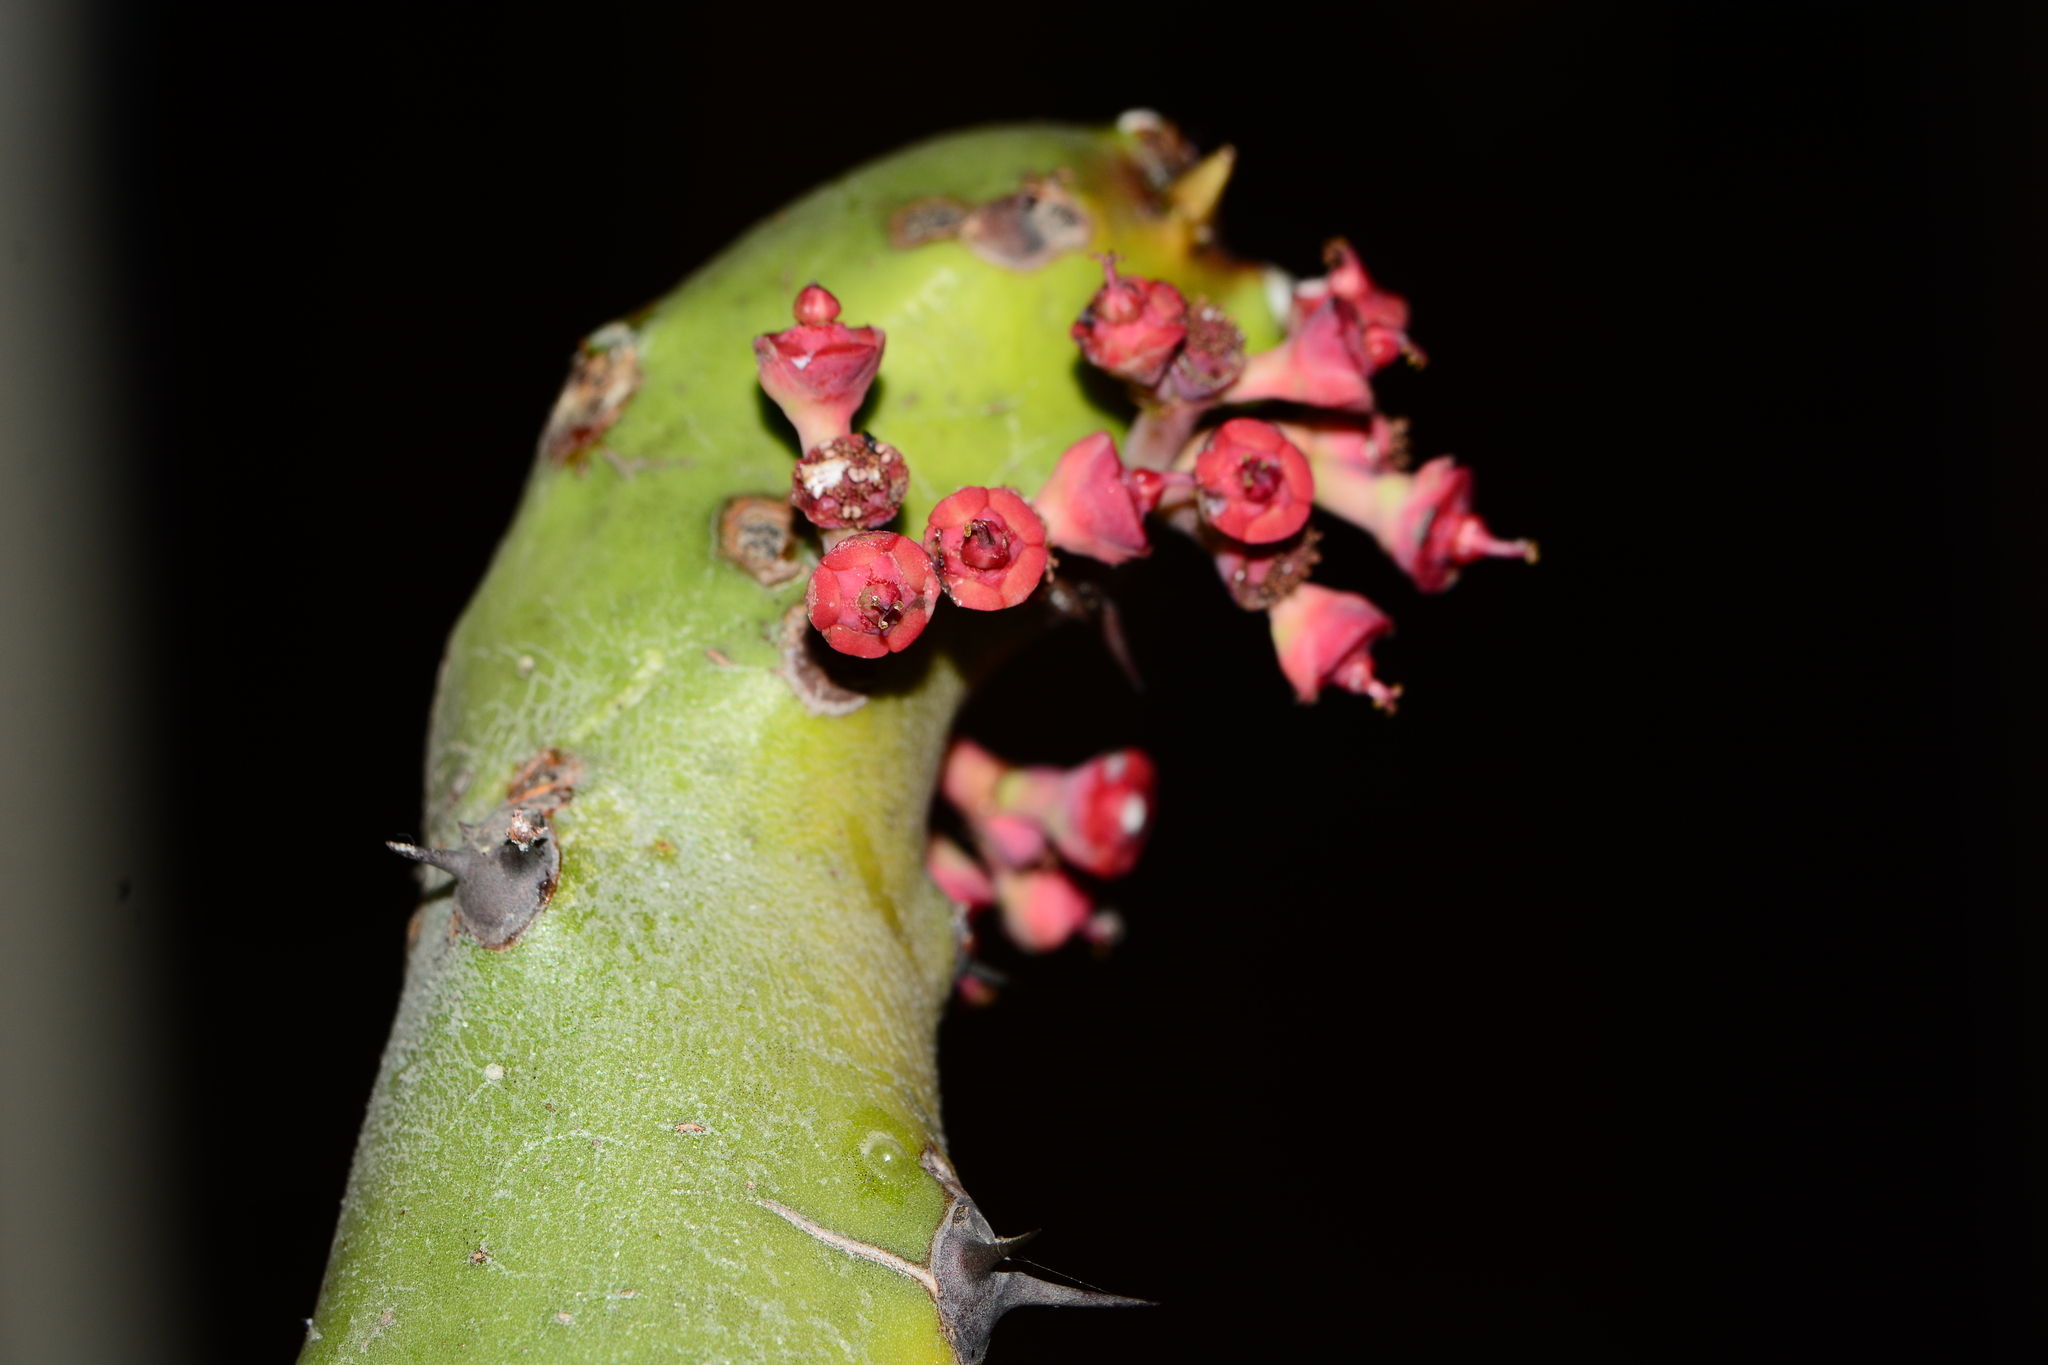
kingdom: Plantae
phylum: Tracheophyta
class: Magnoliopsida
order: Malpighiales
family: Euphorbiaceae
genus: Euphorbia
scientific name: Euphorbia caducifolia
